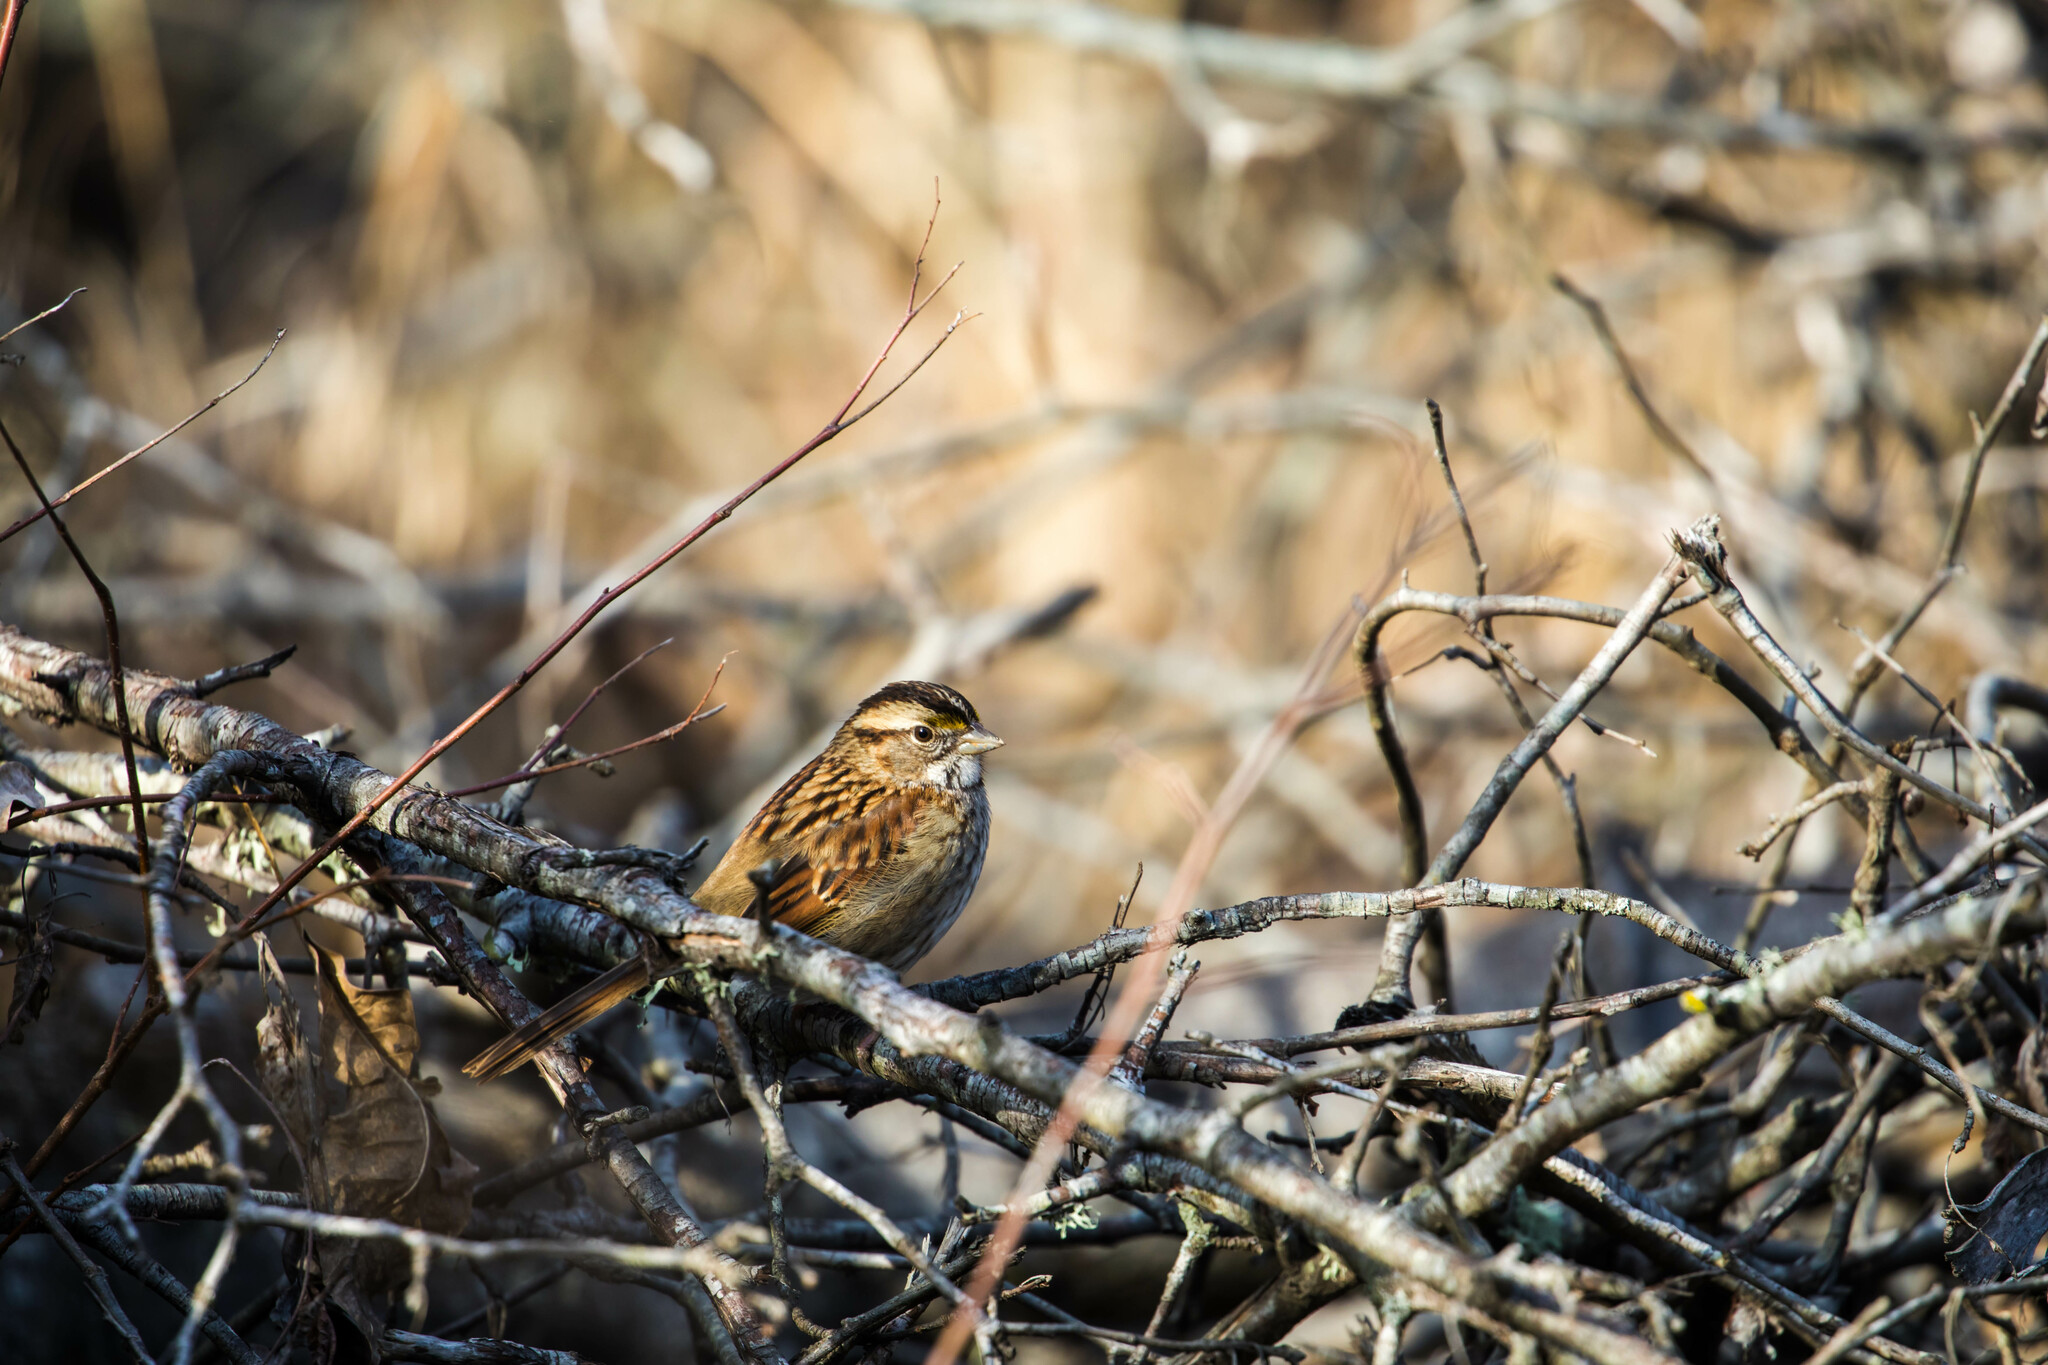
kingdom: Animalia
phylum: Chordata
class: Aves
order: Passeriformes
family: Passerellidae
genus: Zonotrichia
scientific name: Zonotrichia albicollis
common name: White-throated sparrow
